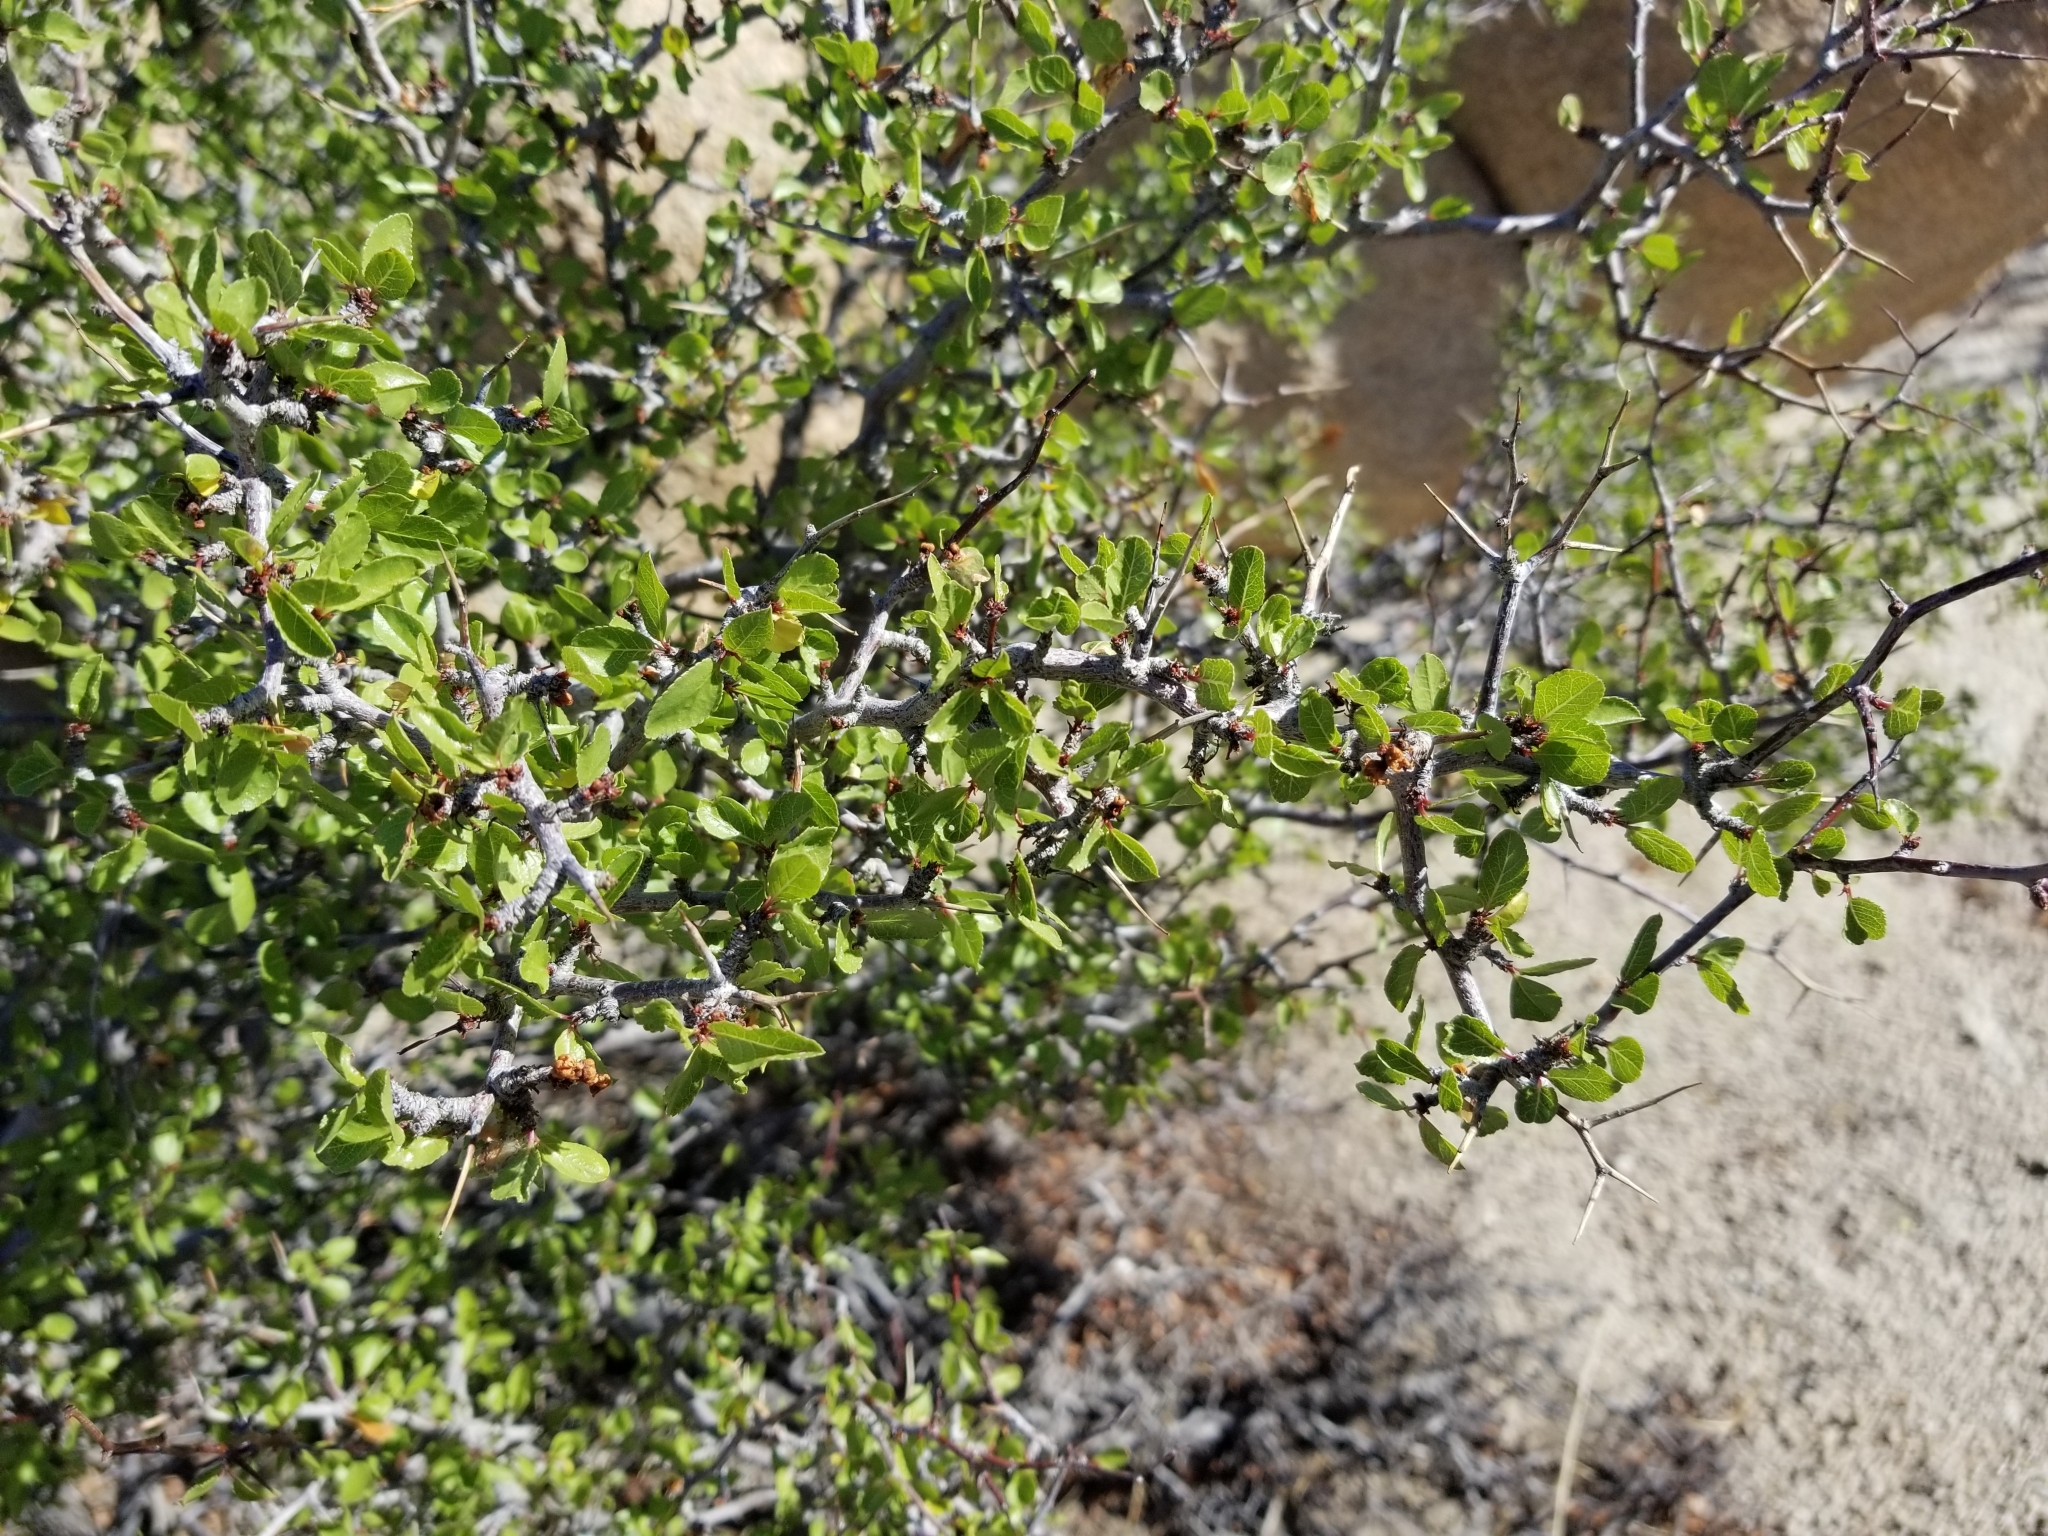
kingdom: Plantae
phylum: Tracheophyta
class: Magnoliopsida
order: Rosales
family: Rosaceae
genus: Prunus
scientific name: Prunus fremontii
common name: Desert apricot
